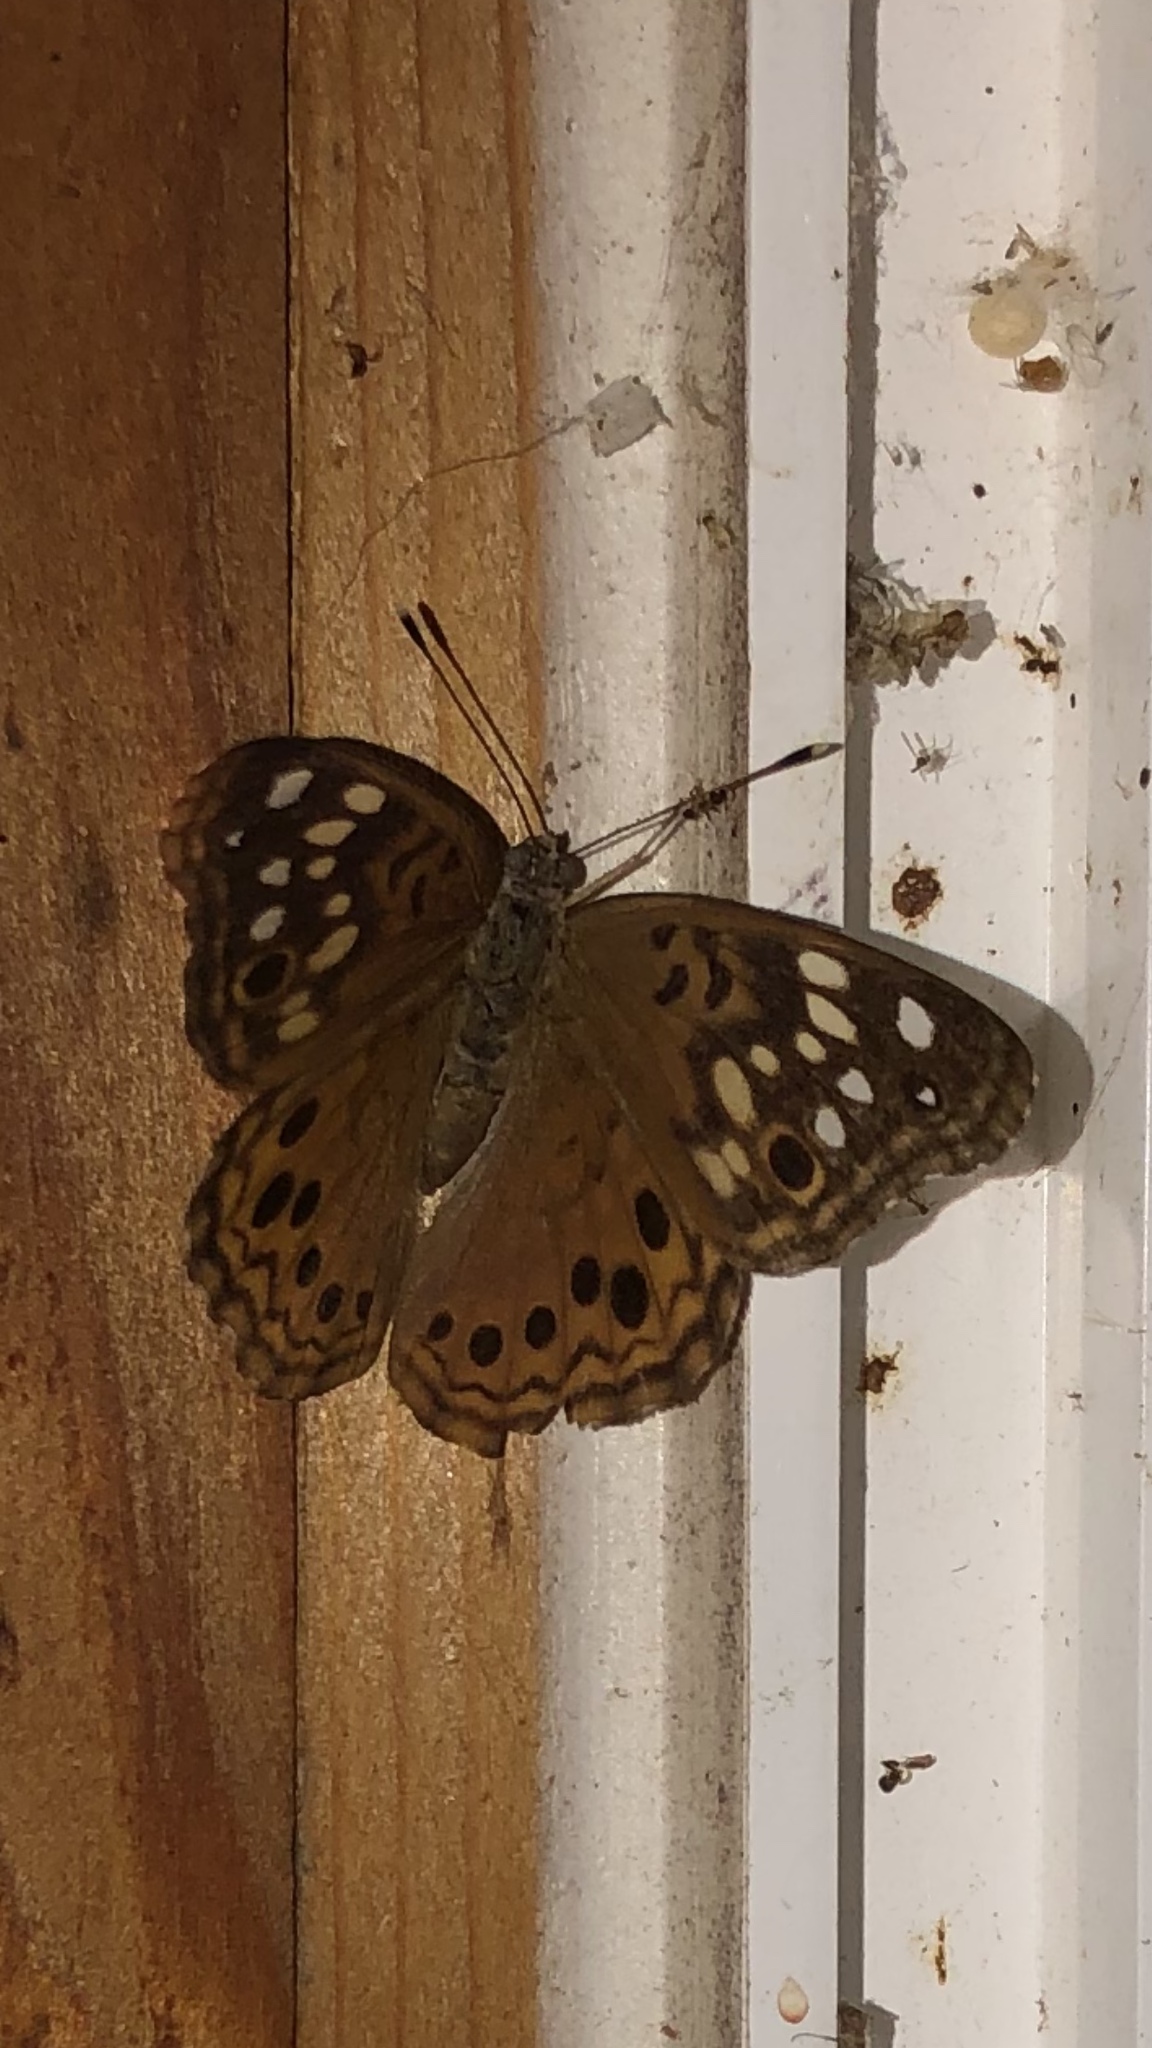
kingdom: Animalia
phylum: Arthropoda
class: Insecta
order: Lepidoptera
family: Nymphalidae
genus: Asterocampa
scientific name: Asterocampa celtis
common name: Hackberry emperor
